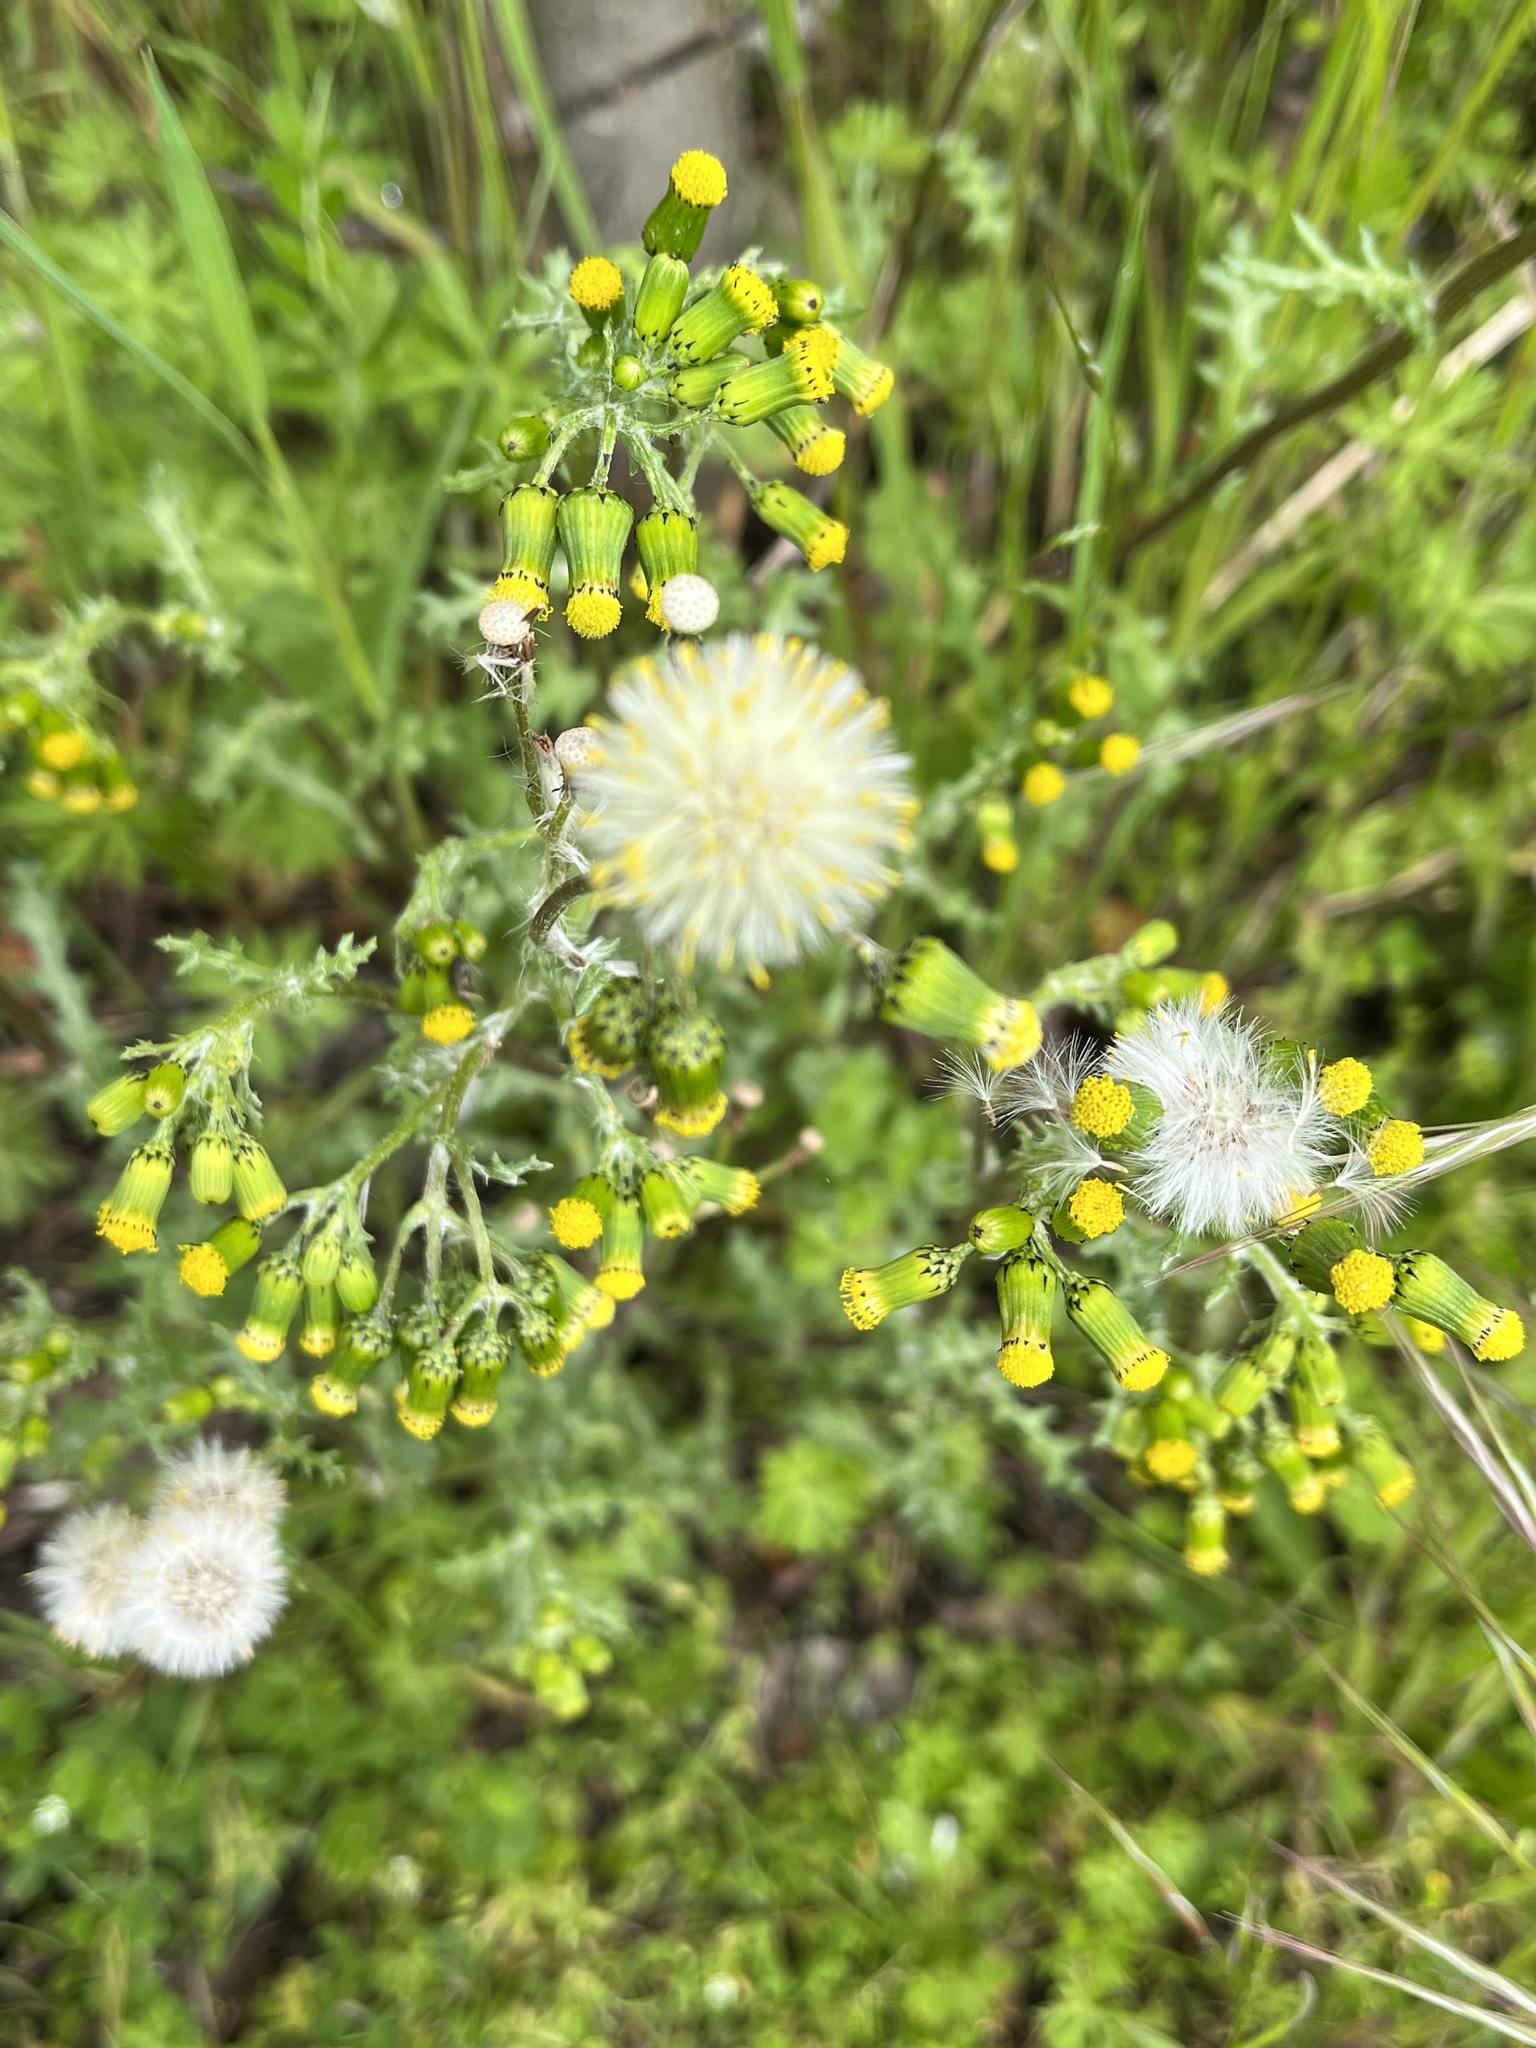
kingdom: Plantae
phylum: Tracheophyta
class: Magnoliopsida
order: Asterales
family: Asteraceae
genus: Senecio
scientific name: Senecio vulgaris
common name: Old-man-in-the-spring
